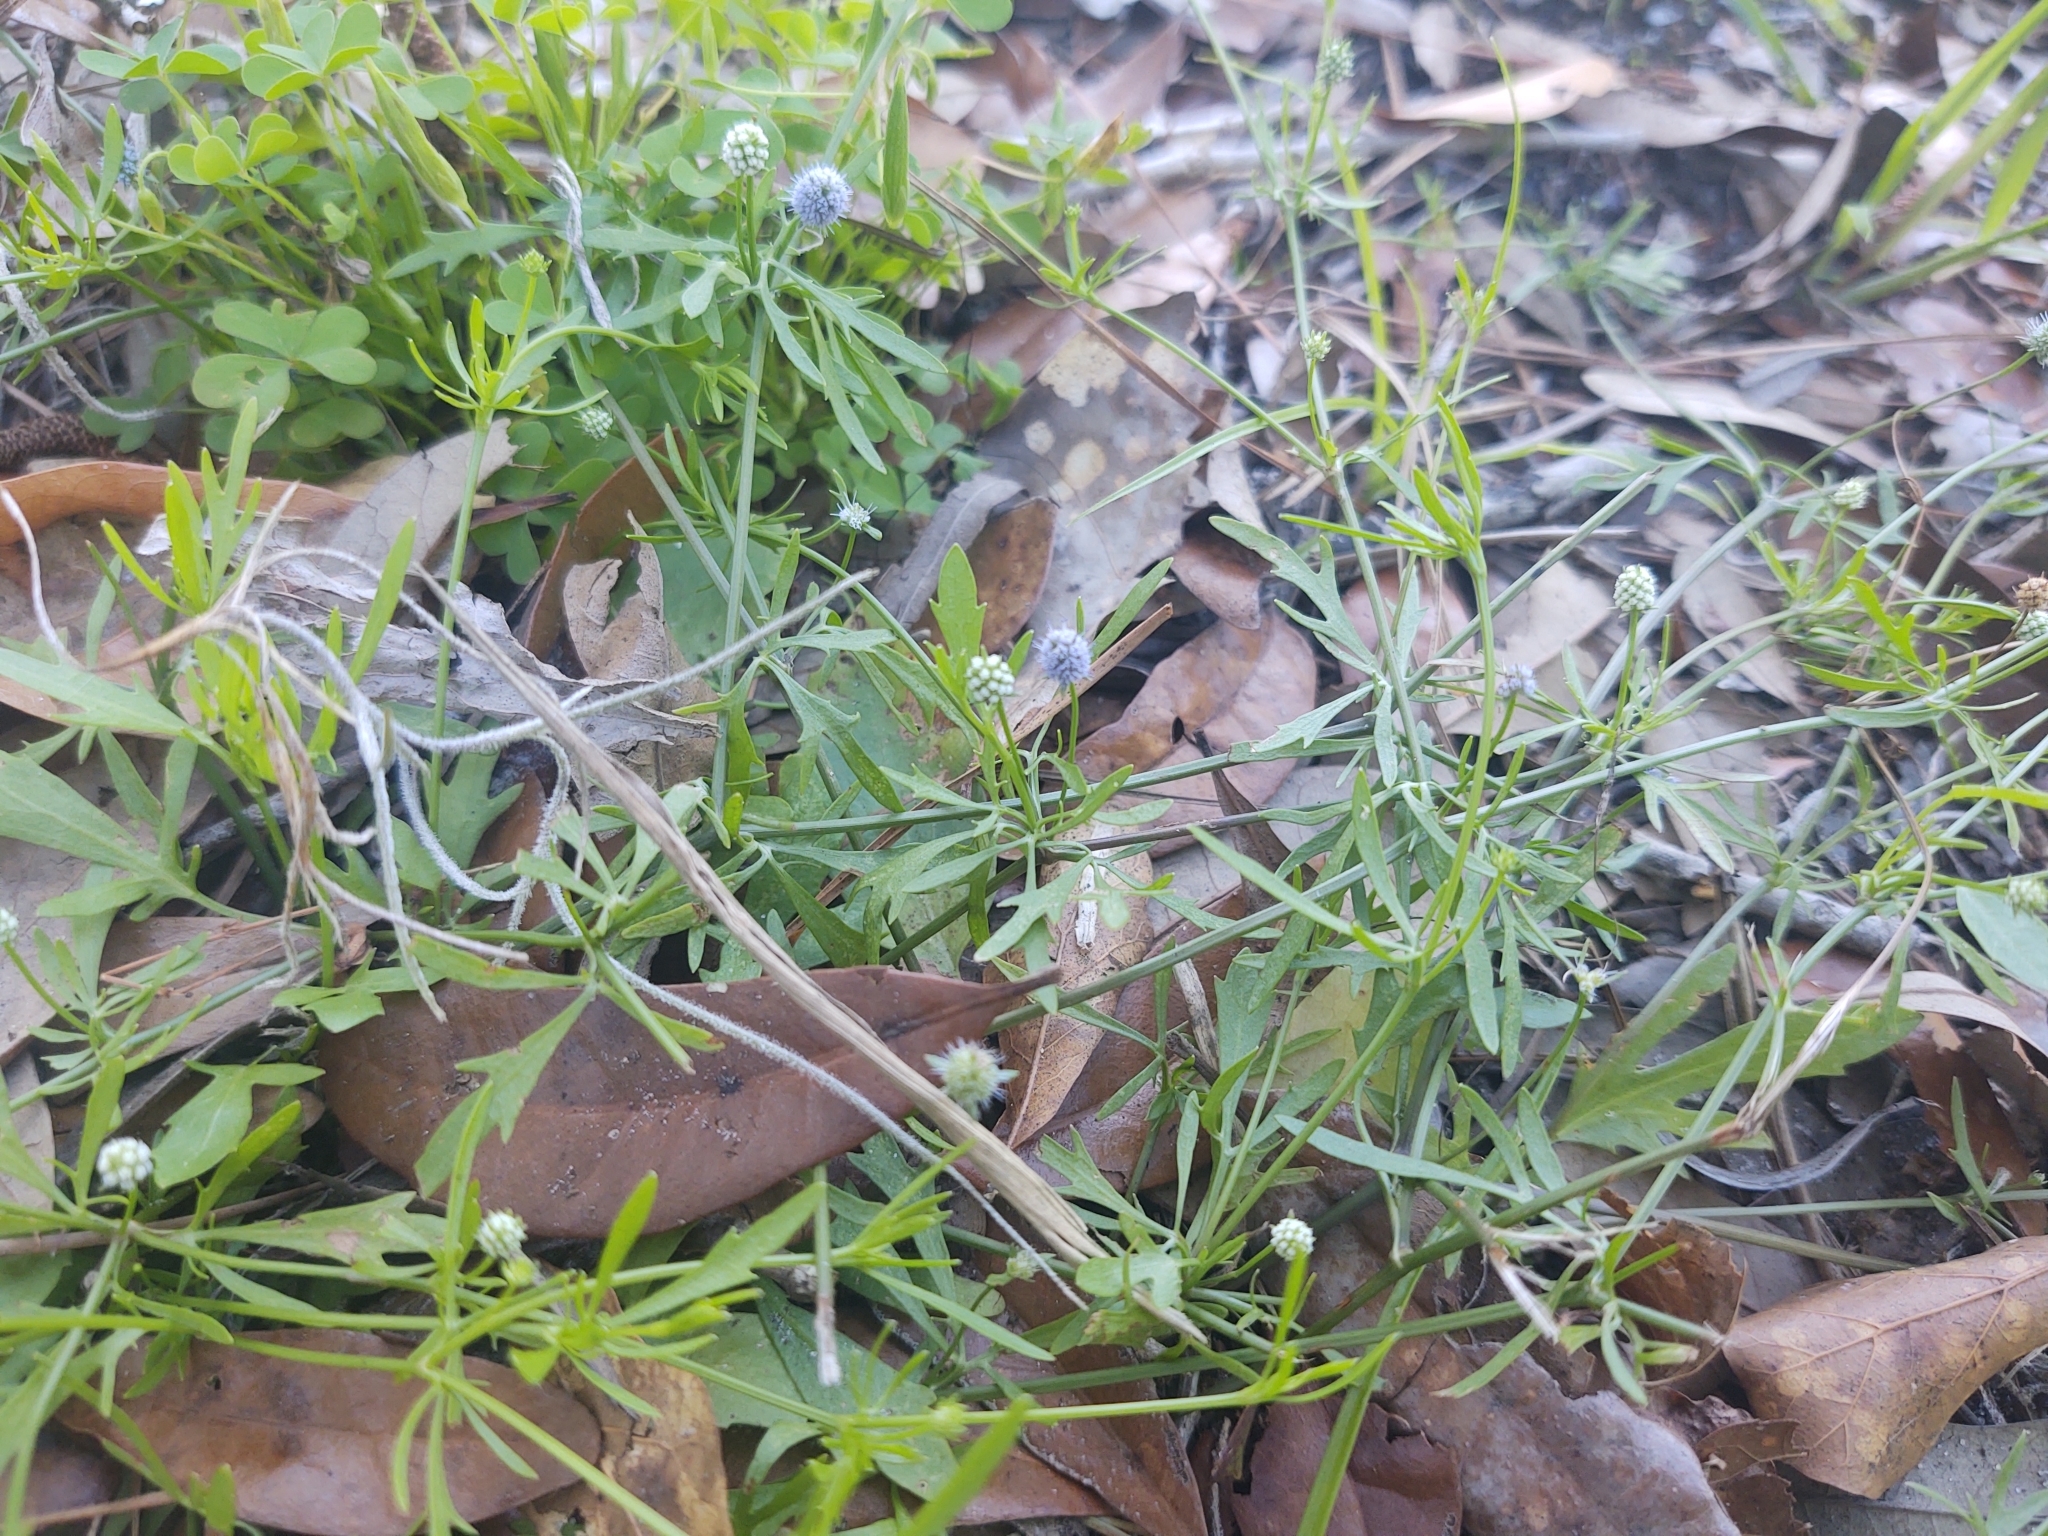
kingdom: Plantae
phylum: Tracheophyta
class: Magnoliopsida
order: Apiales
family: Apiaceae
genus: Eryngium
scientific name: Eryngium baldwinii
